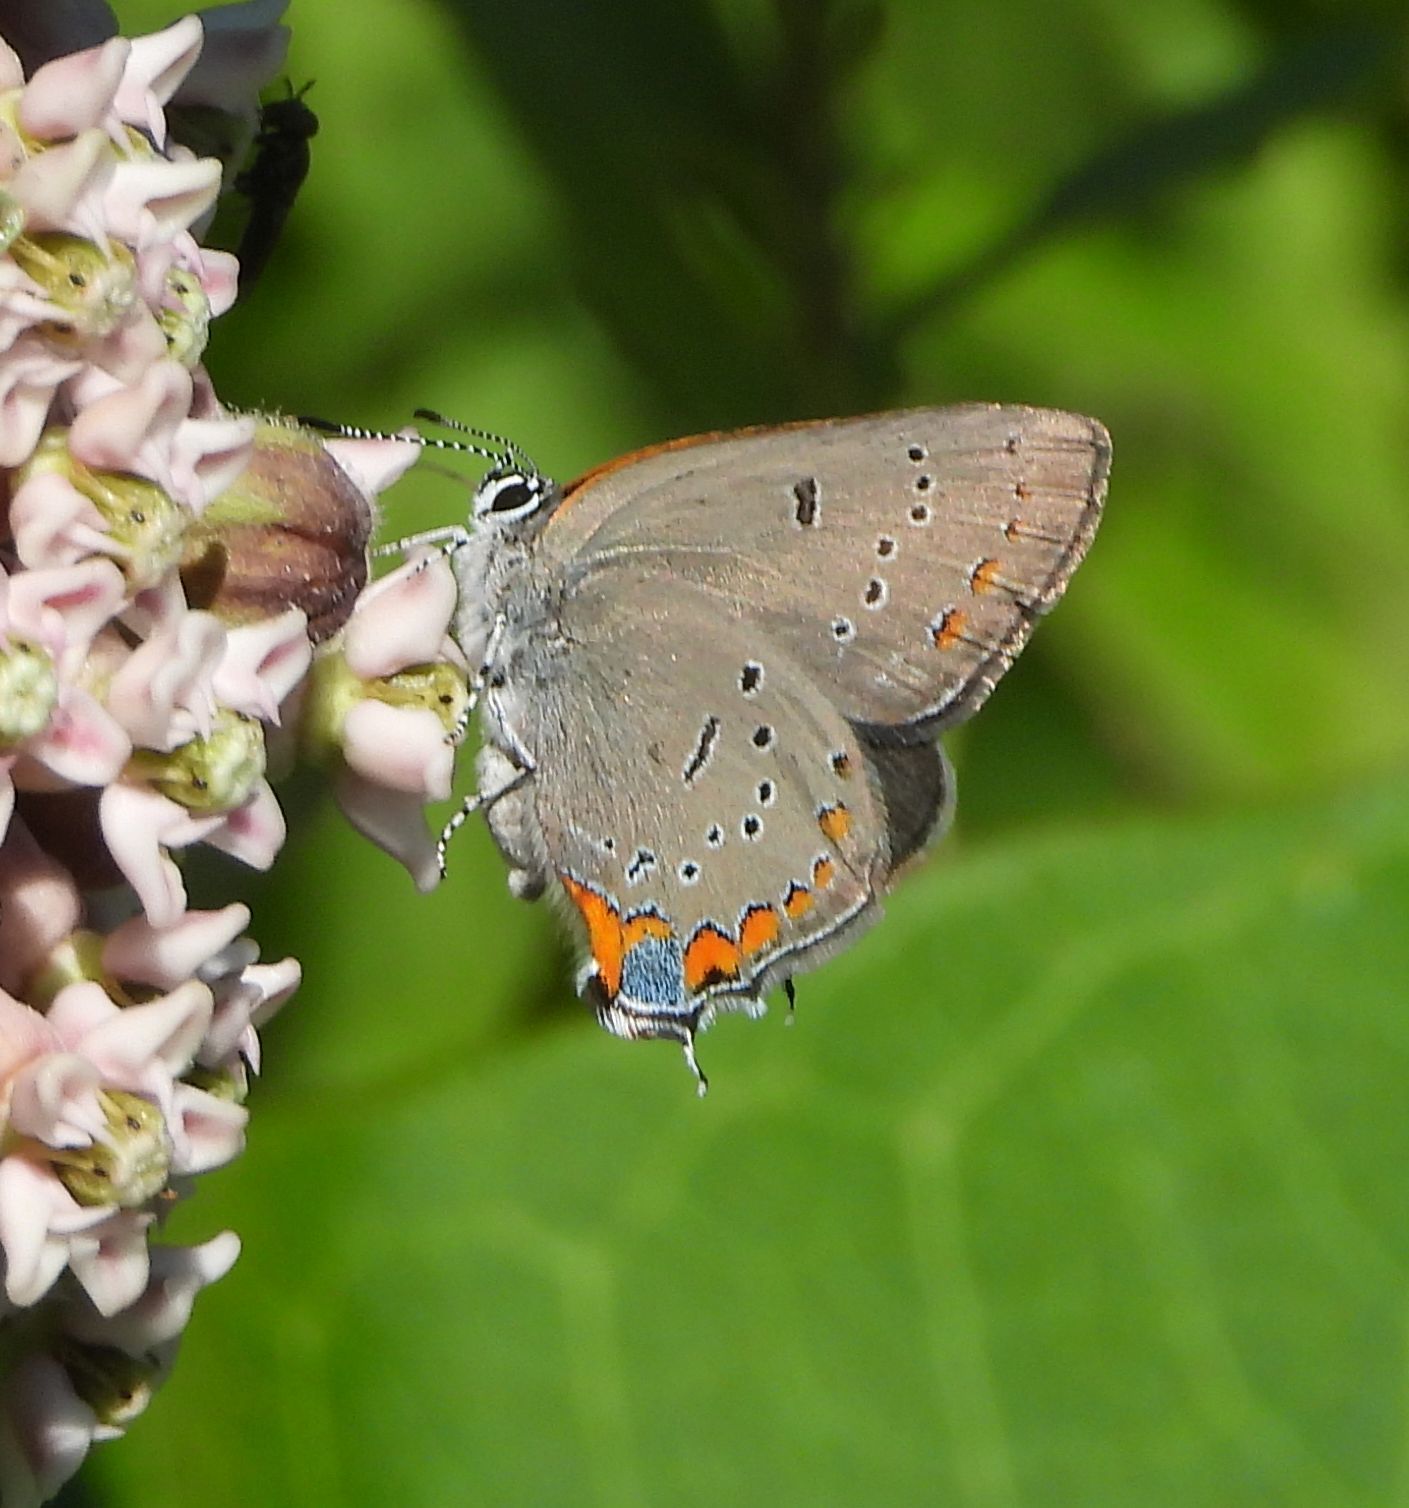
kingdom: Animalia
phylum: Arthropoda
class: Insecta
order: Lepidoptera
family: Lycaenidae
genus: Strymon
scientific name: Strymon acadica
